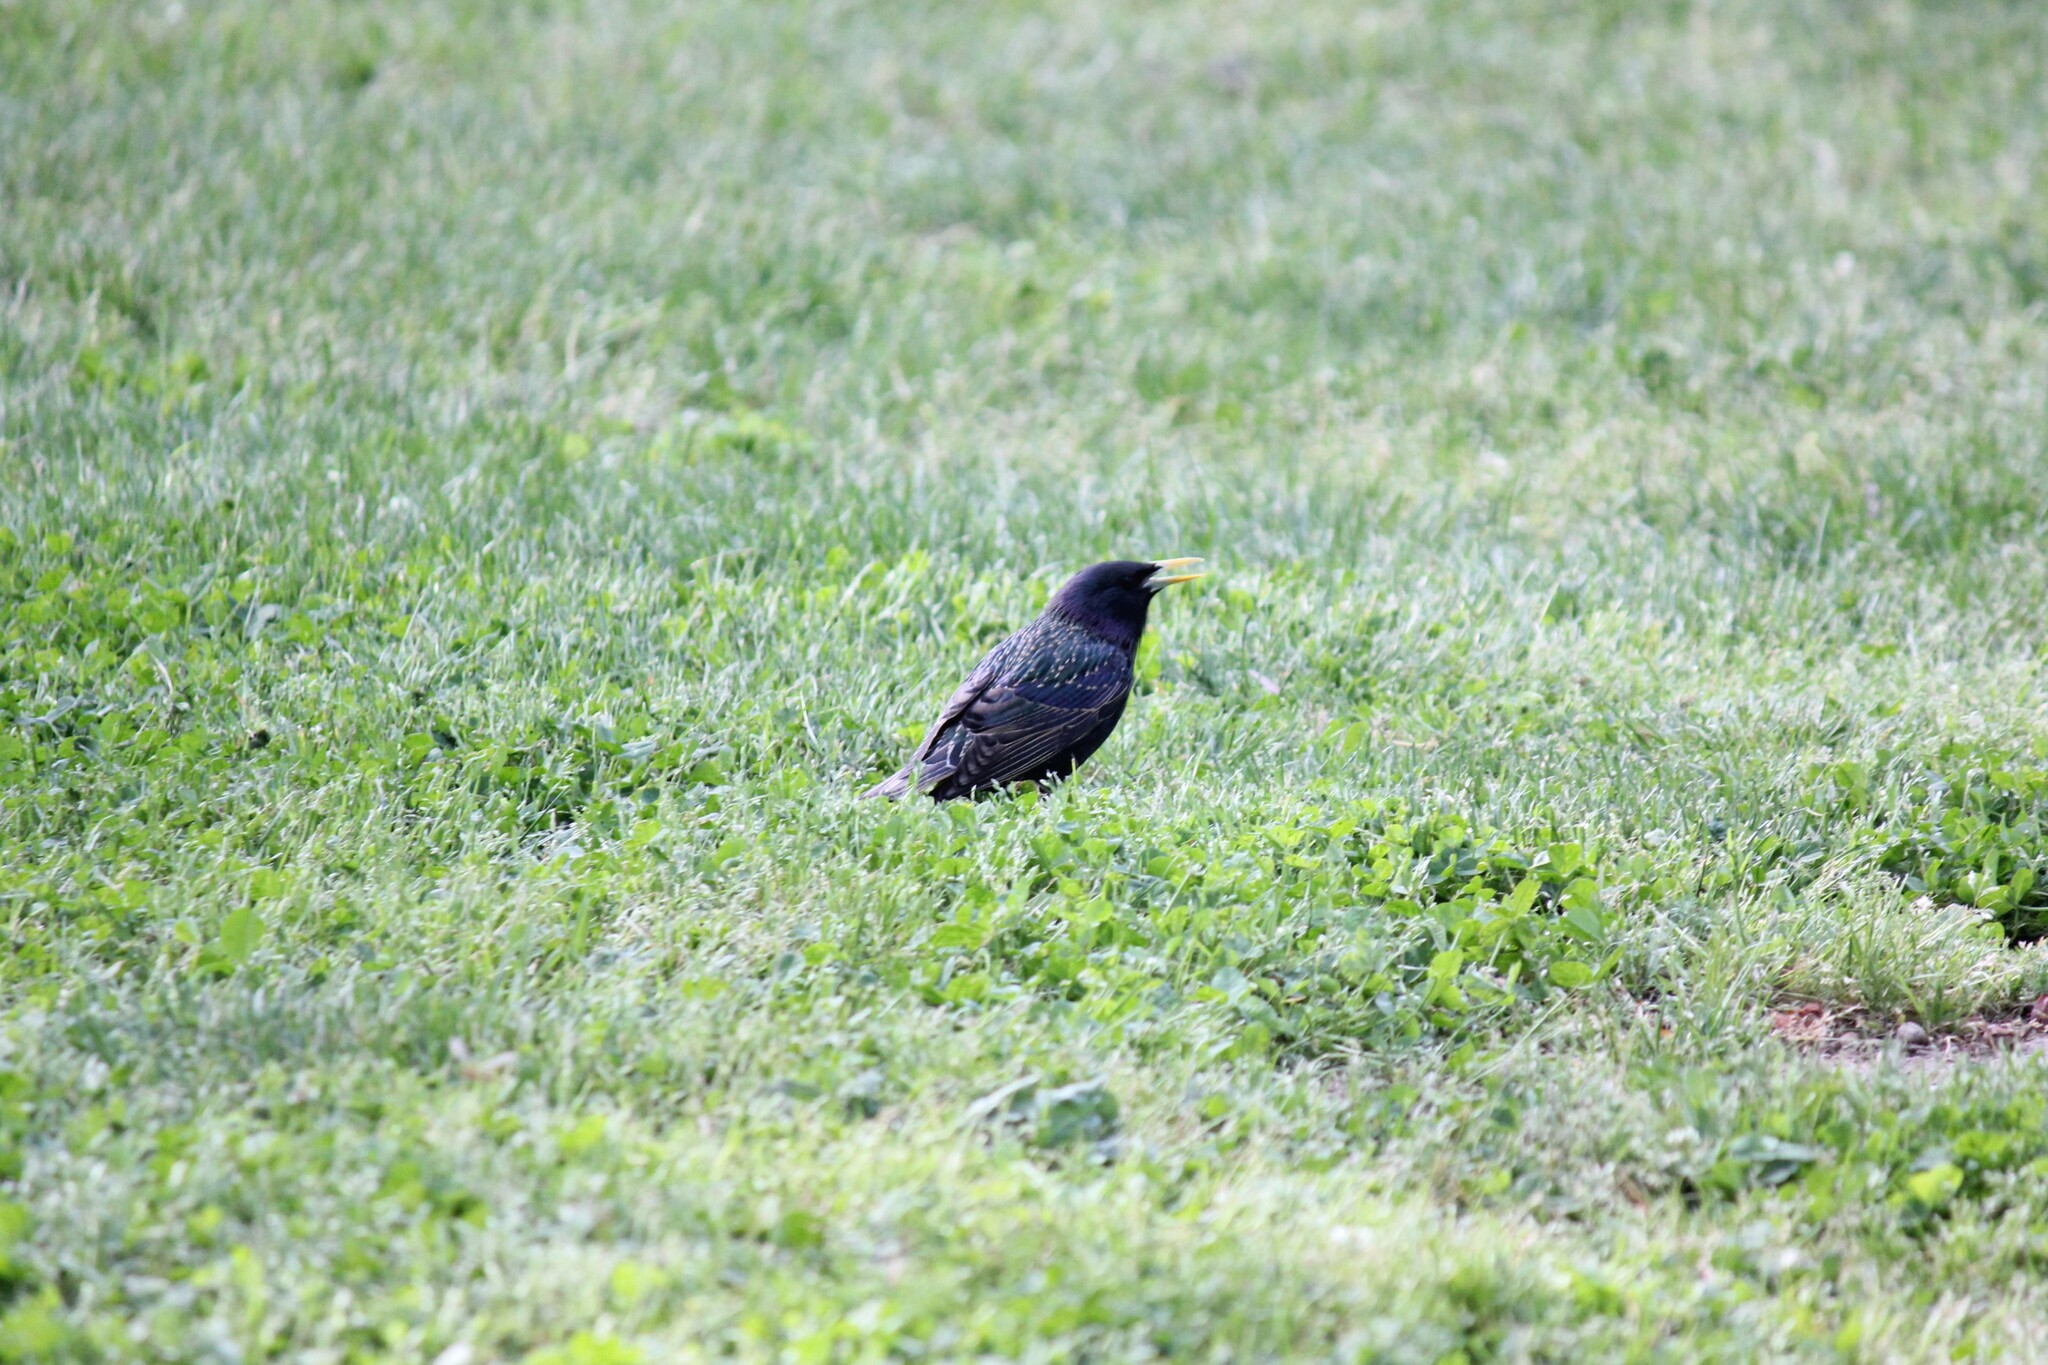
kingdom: Animalia
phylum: Chordata
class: Aves
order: Passeriformes
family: Sturnidae
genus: Sturnus
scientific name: Sturnus vulgaris
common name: Common starling
